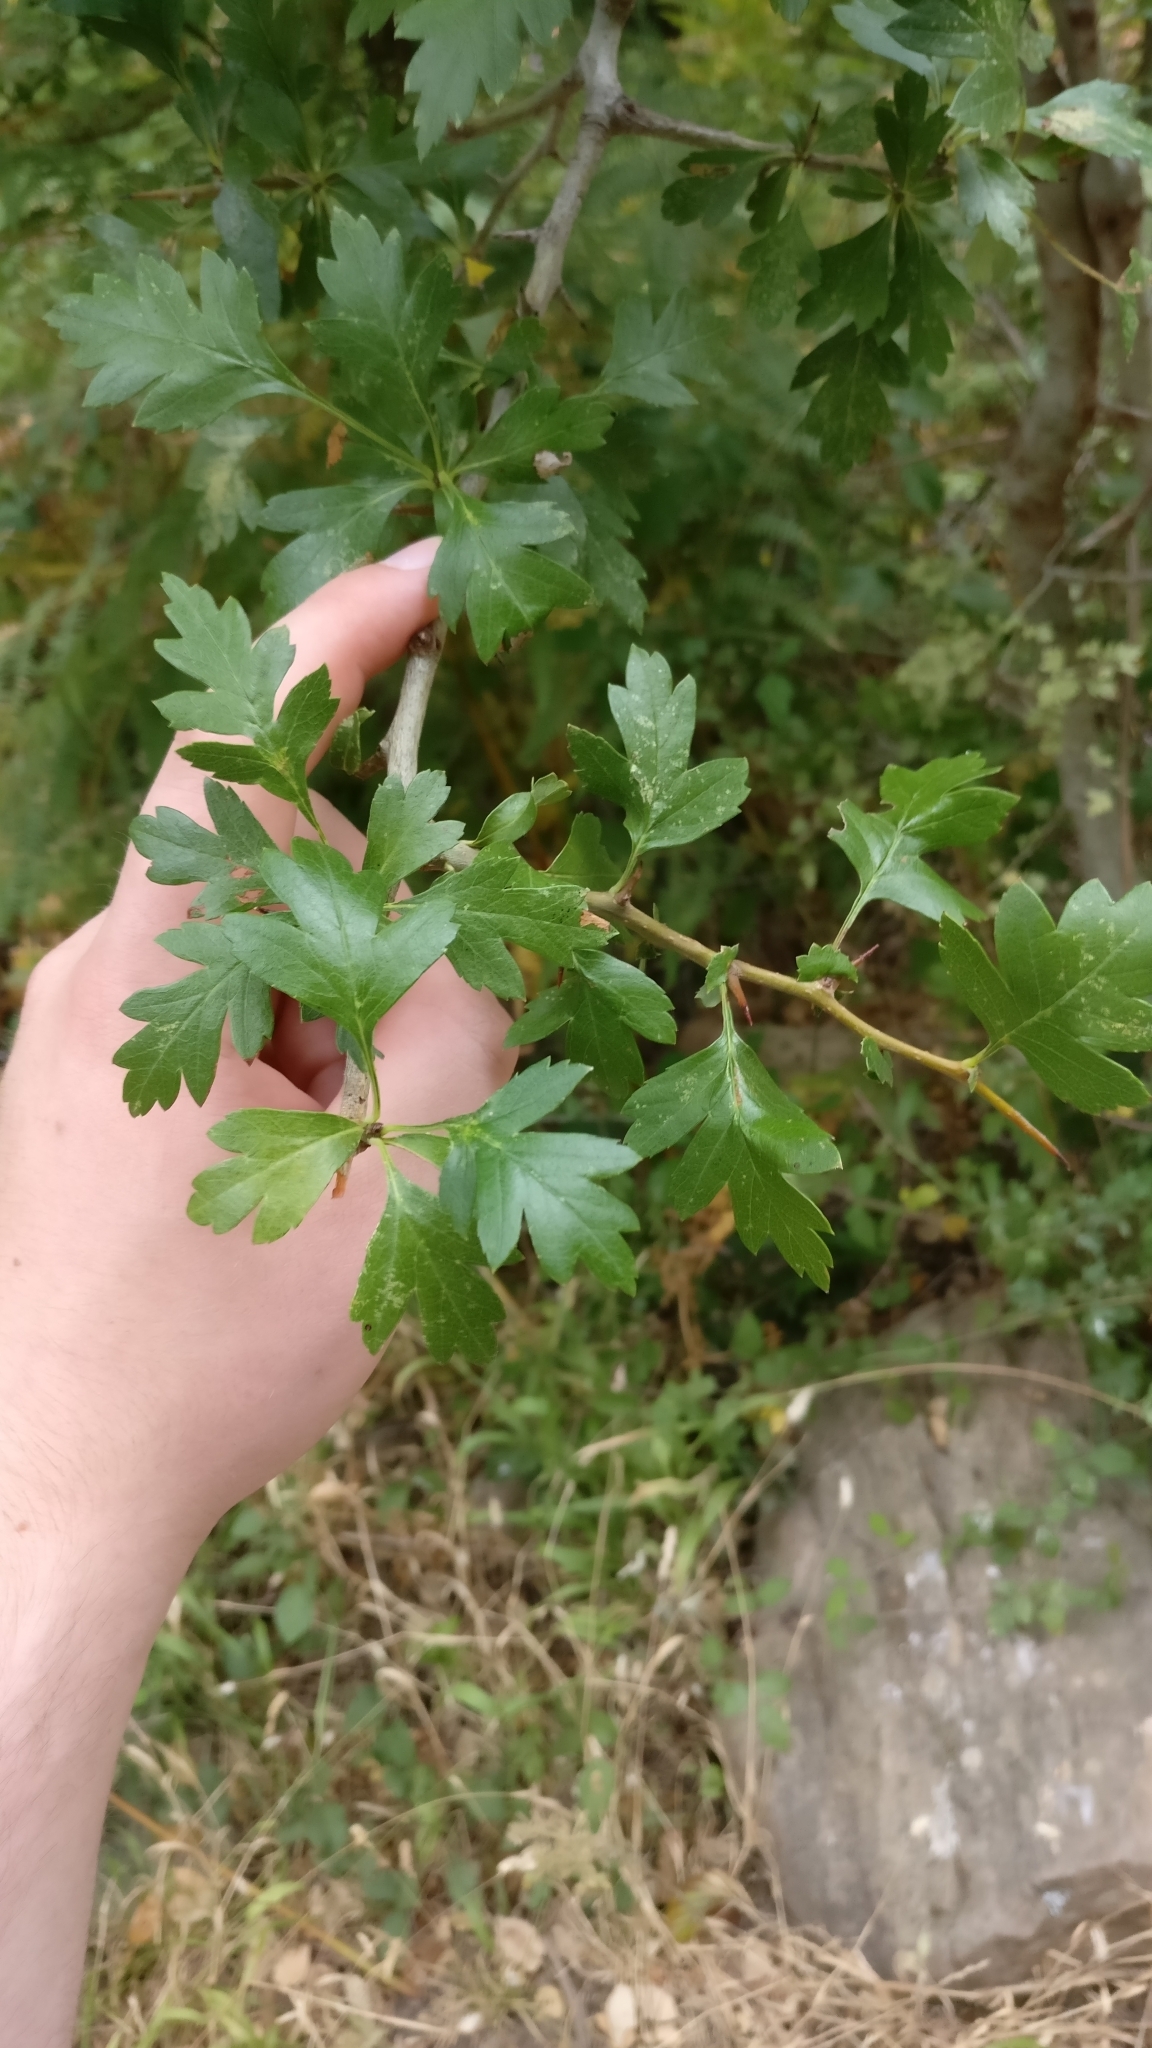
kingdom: Plantae
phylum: Tracheophyta
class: Magnoliopsida
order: Rosales
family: Rosaceae
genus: Crataegus
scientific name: Crataegus monogyna
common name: Hawthorn
